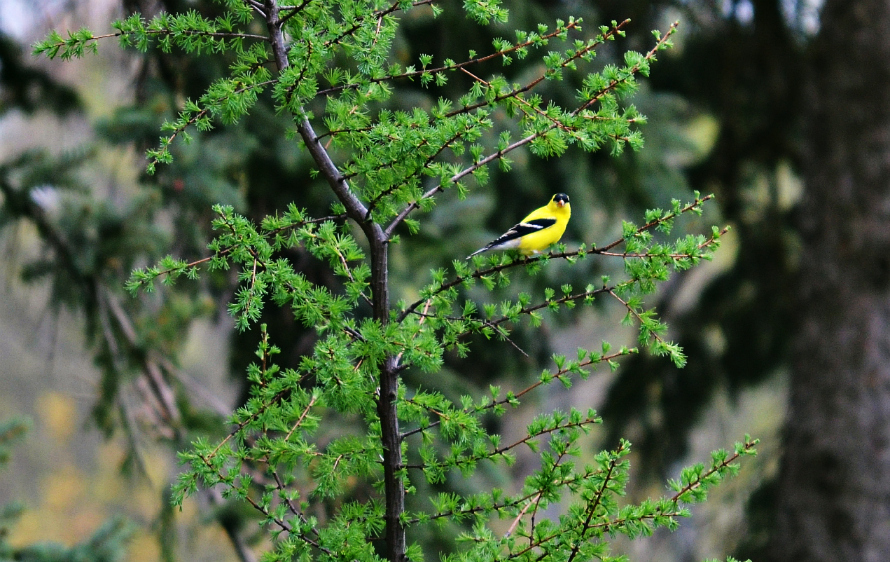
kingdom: Animalia
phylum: Chordata
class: Aves
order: Passeriformes
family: Fringillidae
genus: Spinus
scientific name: Spinus tristis
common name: American goldfinch
